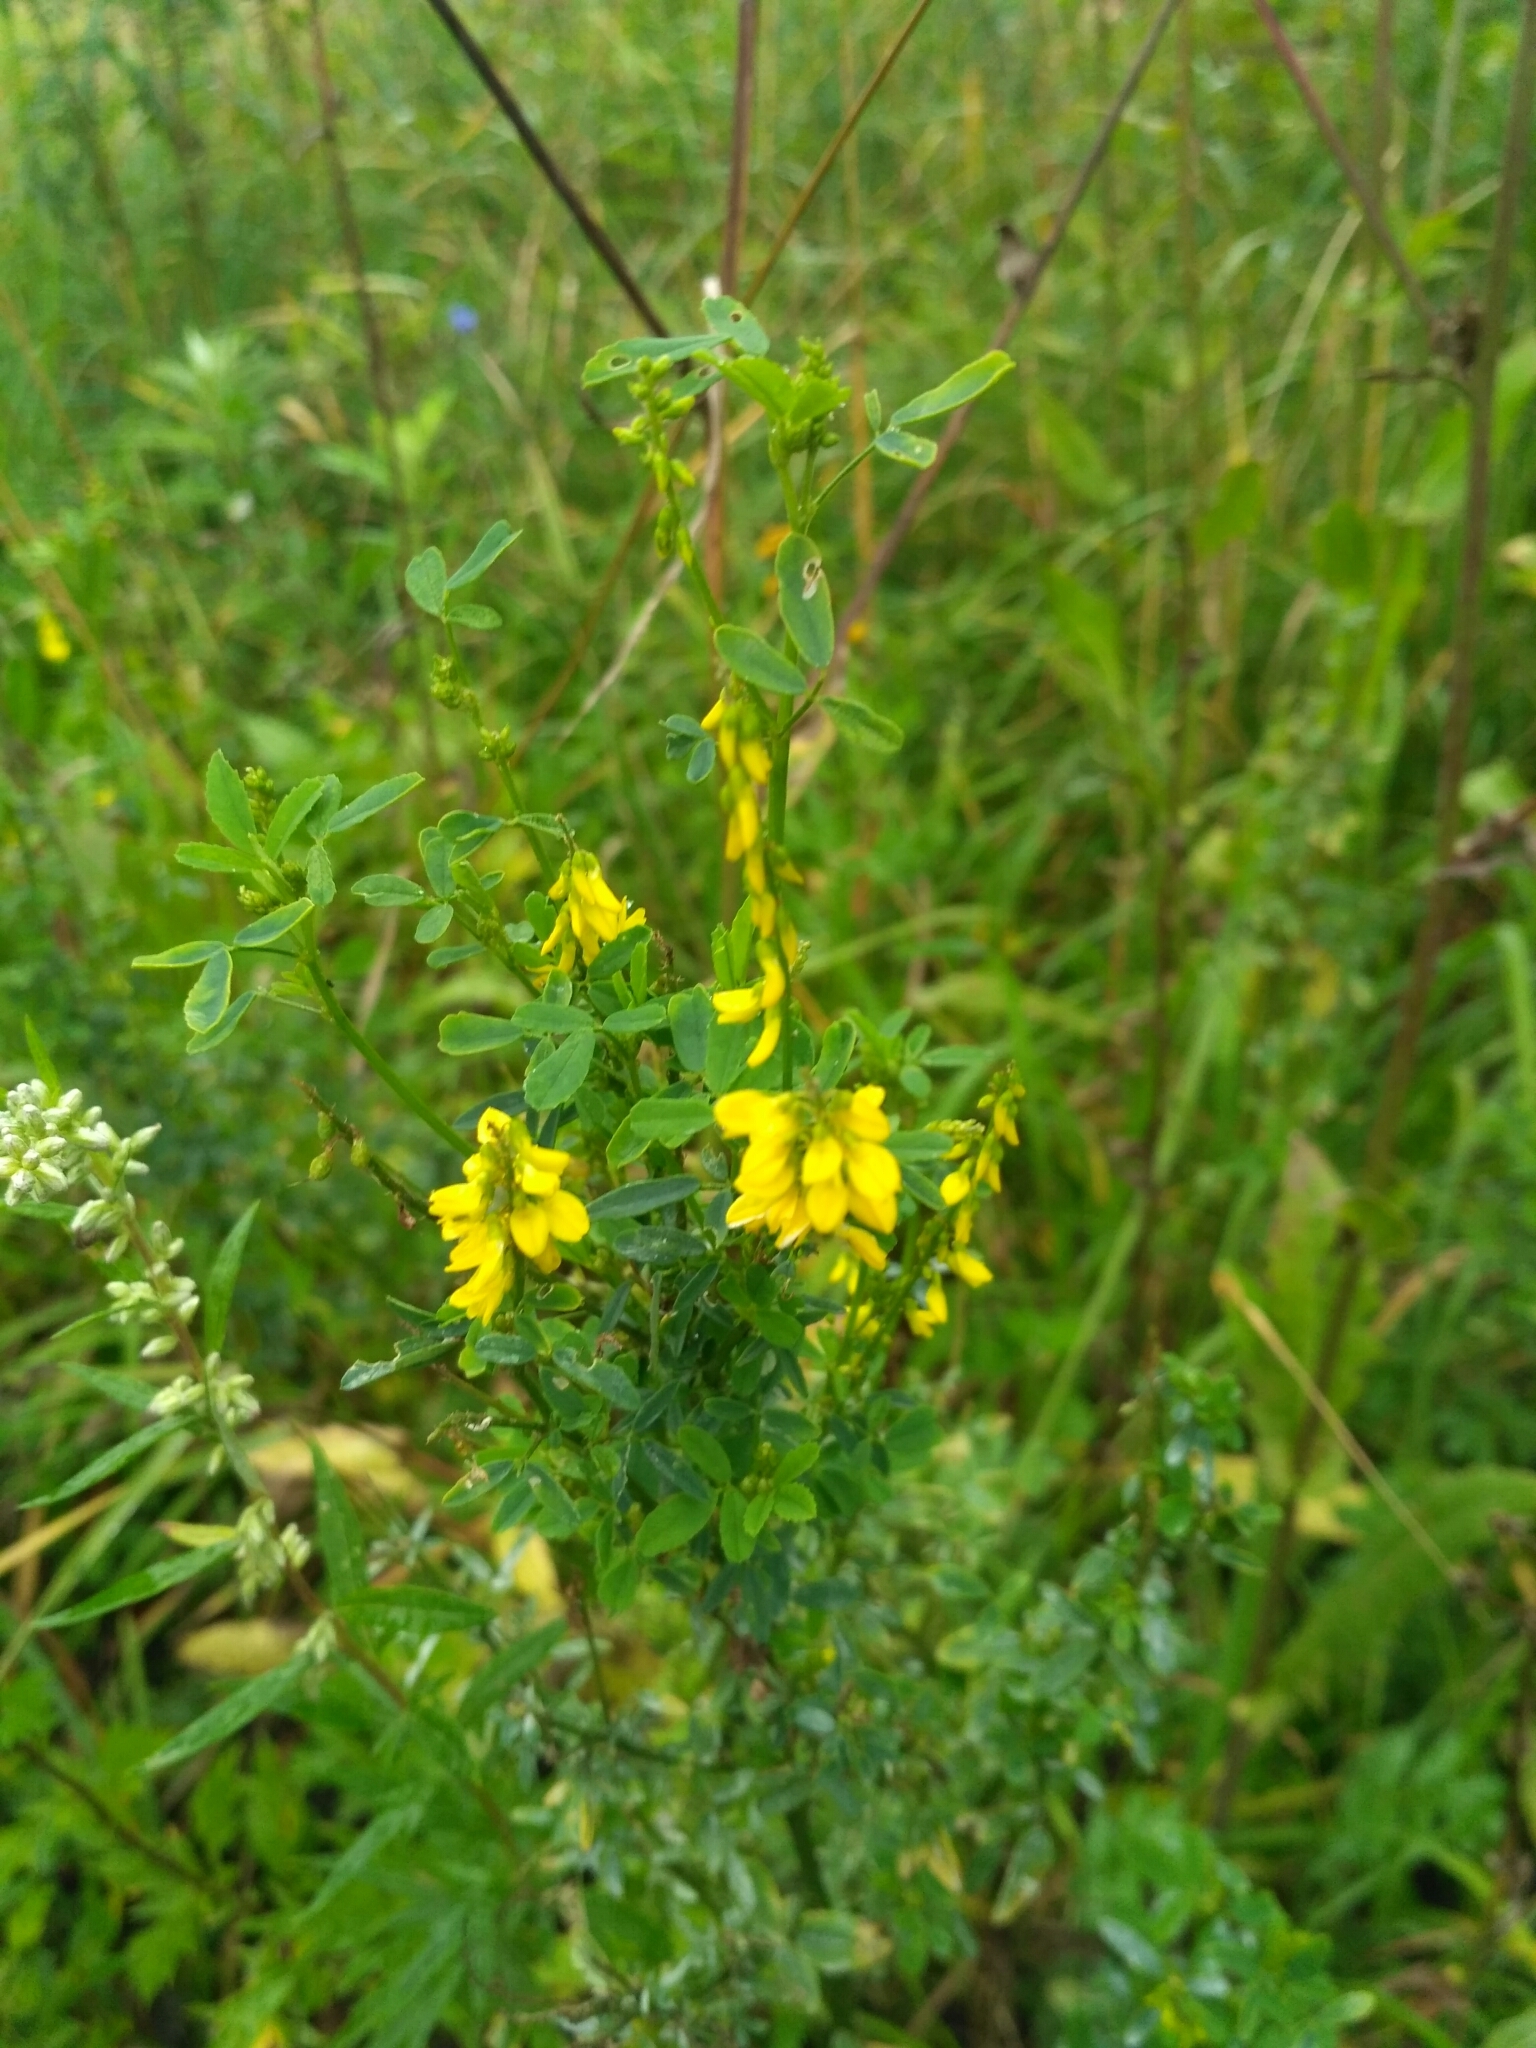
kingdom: Plantae
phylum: Tracheophyta
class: Magnoliopsida
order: Fabales
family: Fabaceae
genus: Melilotus
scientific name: Melilotus officinalis
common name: Sweetclover
